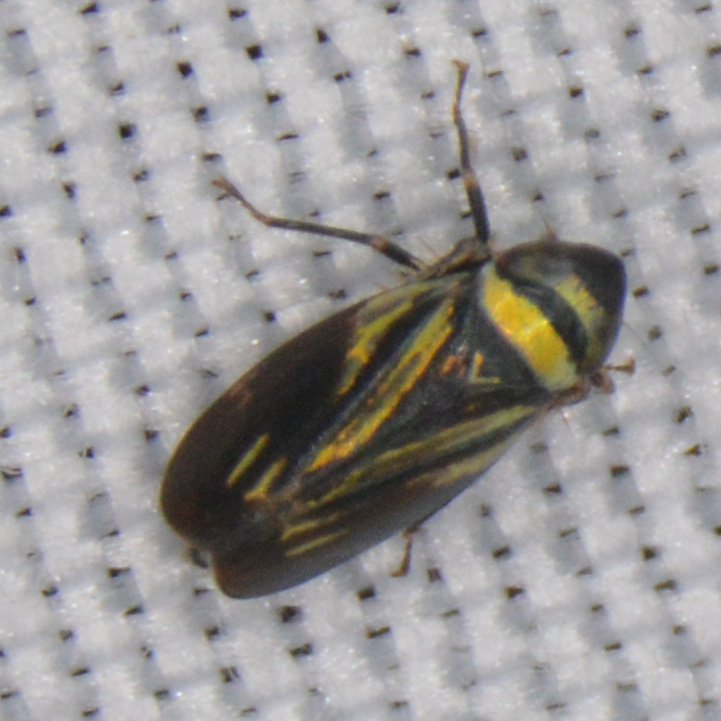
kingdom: Animalia
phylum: Arthropoda
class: Insecta
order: Hemiptera
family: Cicadellidae
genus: Stirellus
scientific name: Stirellus bicolor
